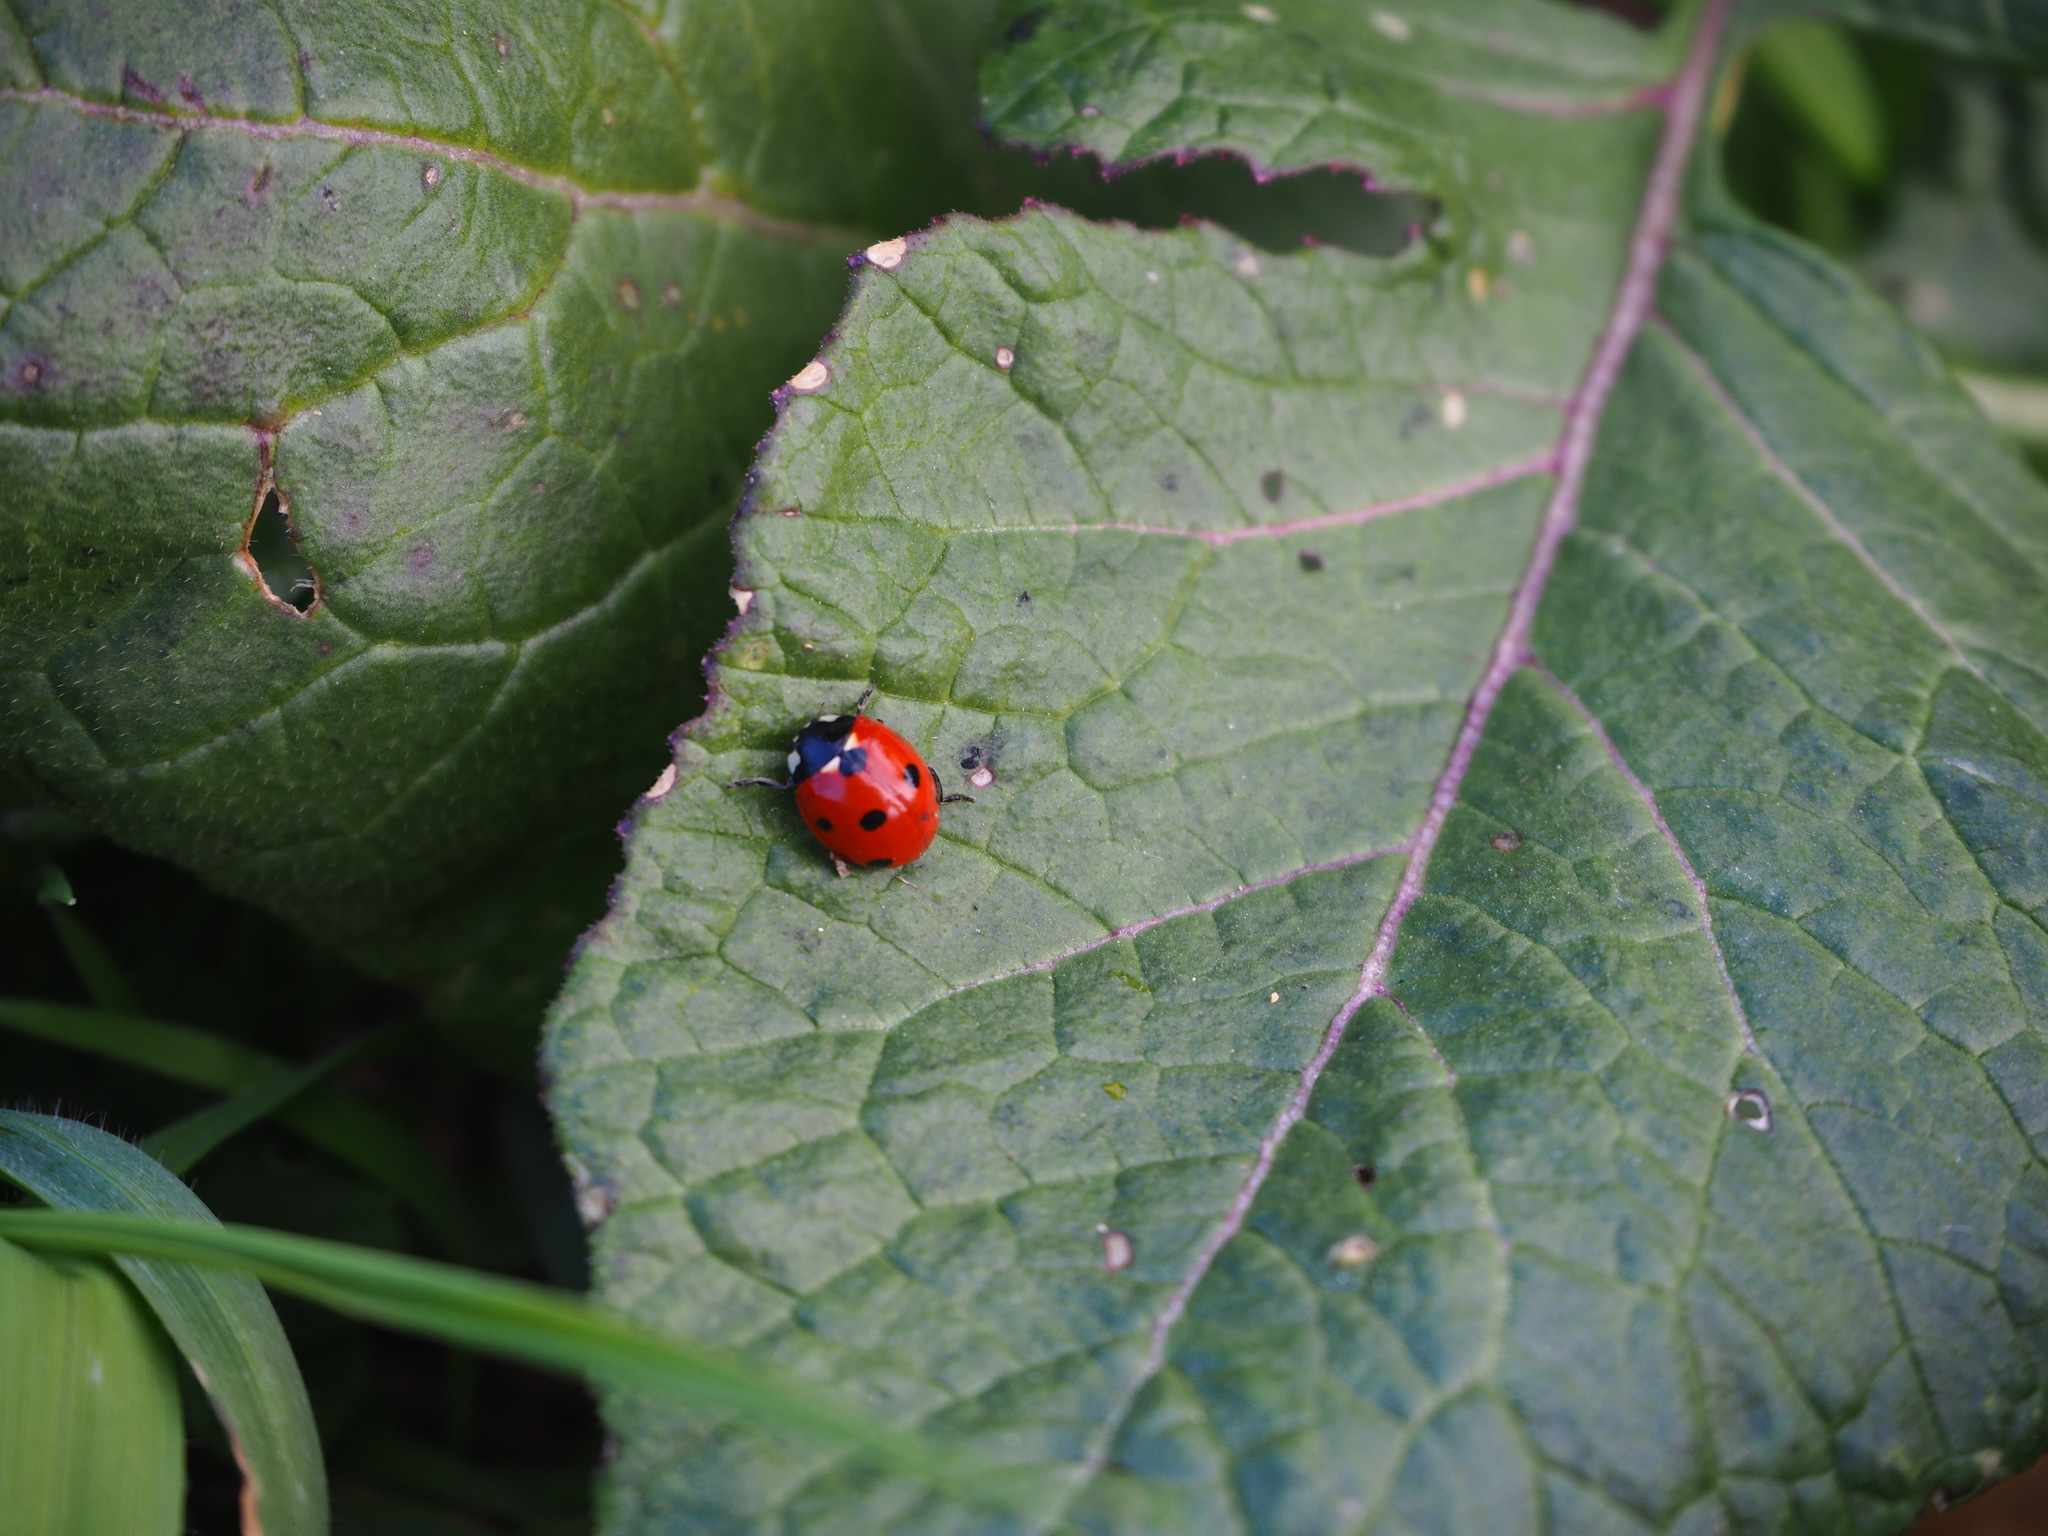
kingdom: Animalia
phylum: Arthropoda
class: Insecta
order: Coleoptera
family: Coccinellidae
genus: Coccinella
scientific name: Coccinella septempunctata
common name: Sevenspotted lady beetle
